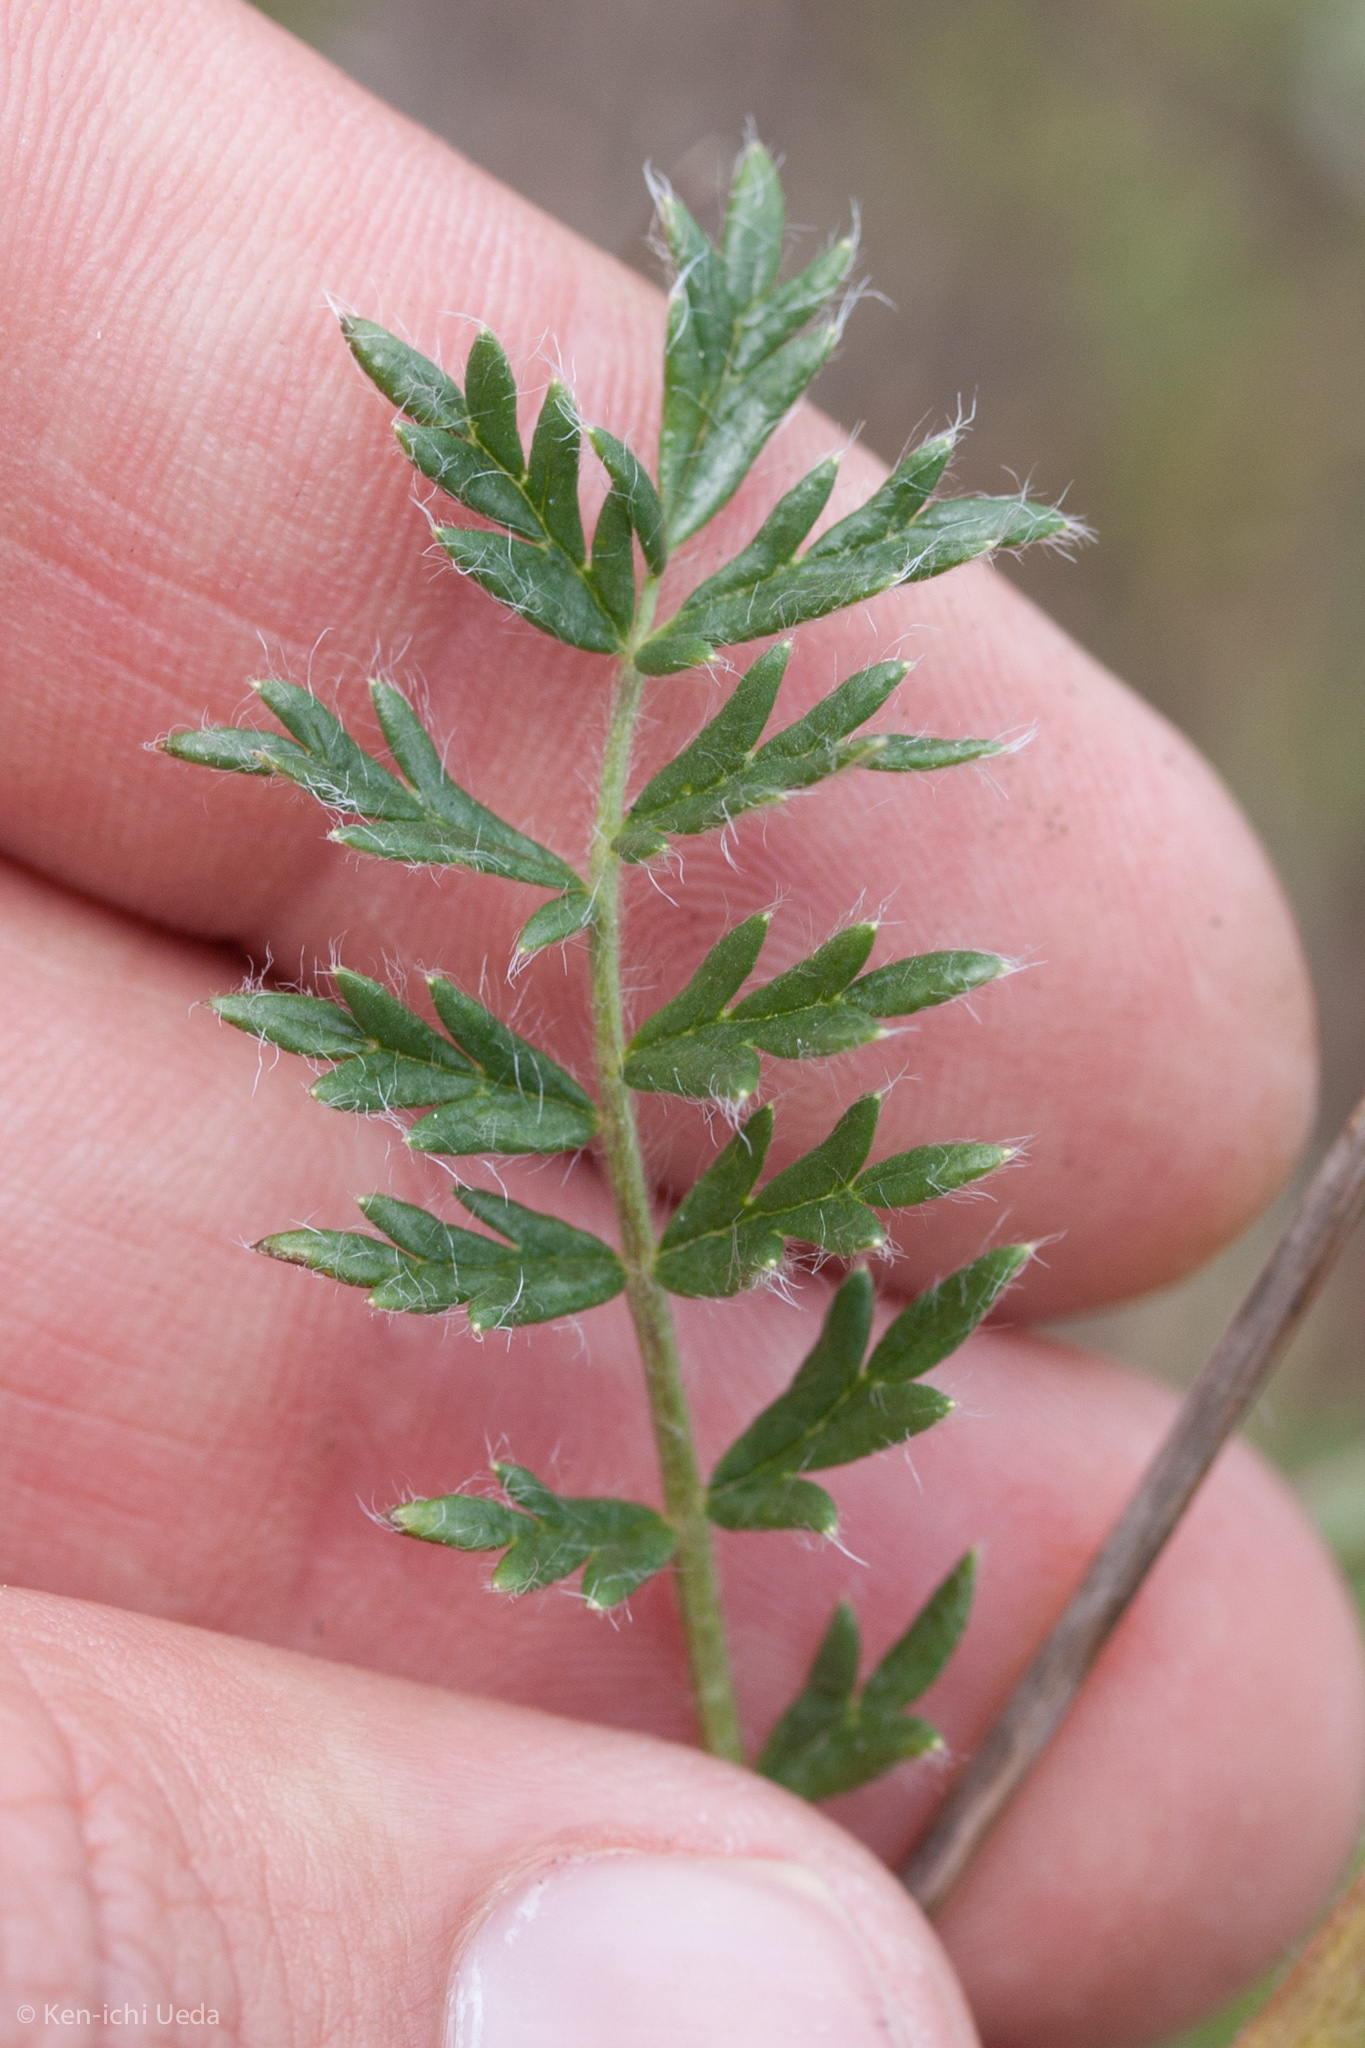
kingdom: Plantae
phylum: Tracheophyta
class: Magnoliopsida
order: Rosales
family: Rosaceae
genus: Acaena
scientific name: Acaena pinnatifida
